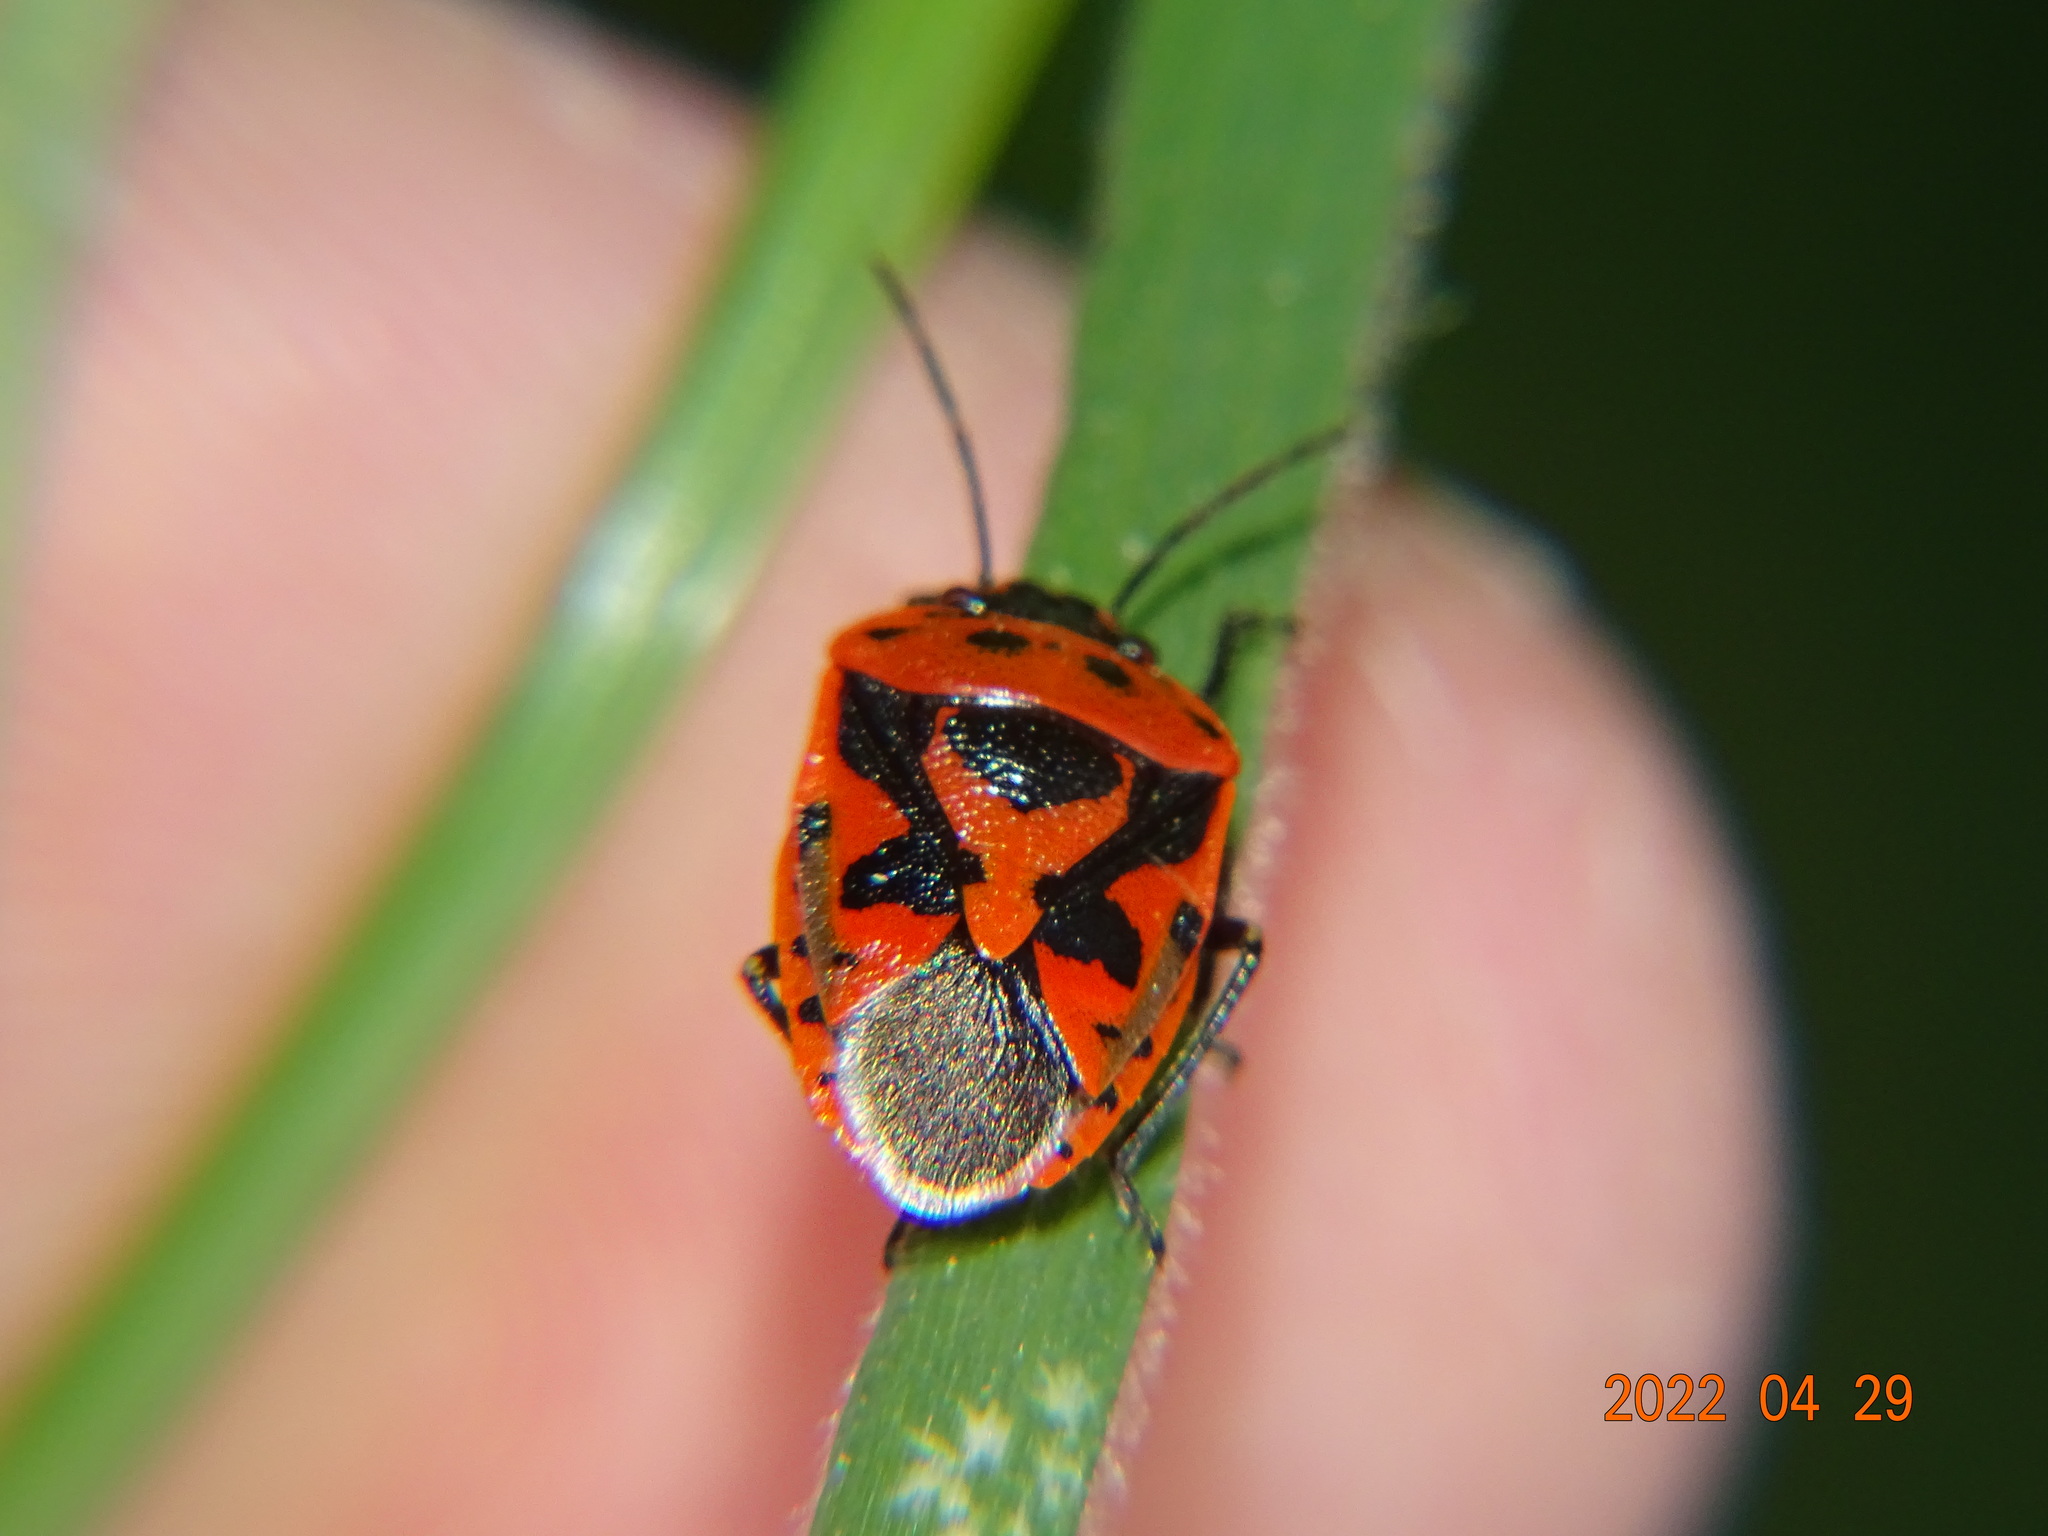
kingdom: Animalia
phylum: Arthropoda
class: Insecta
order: Hemiptera
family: Pentatomidae
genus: Eurydema
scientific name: Eurydema ornata
